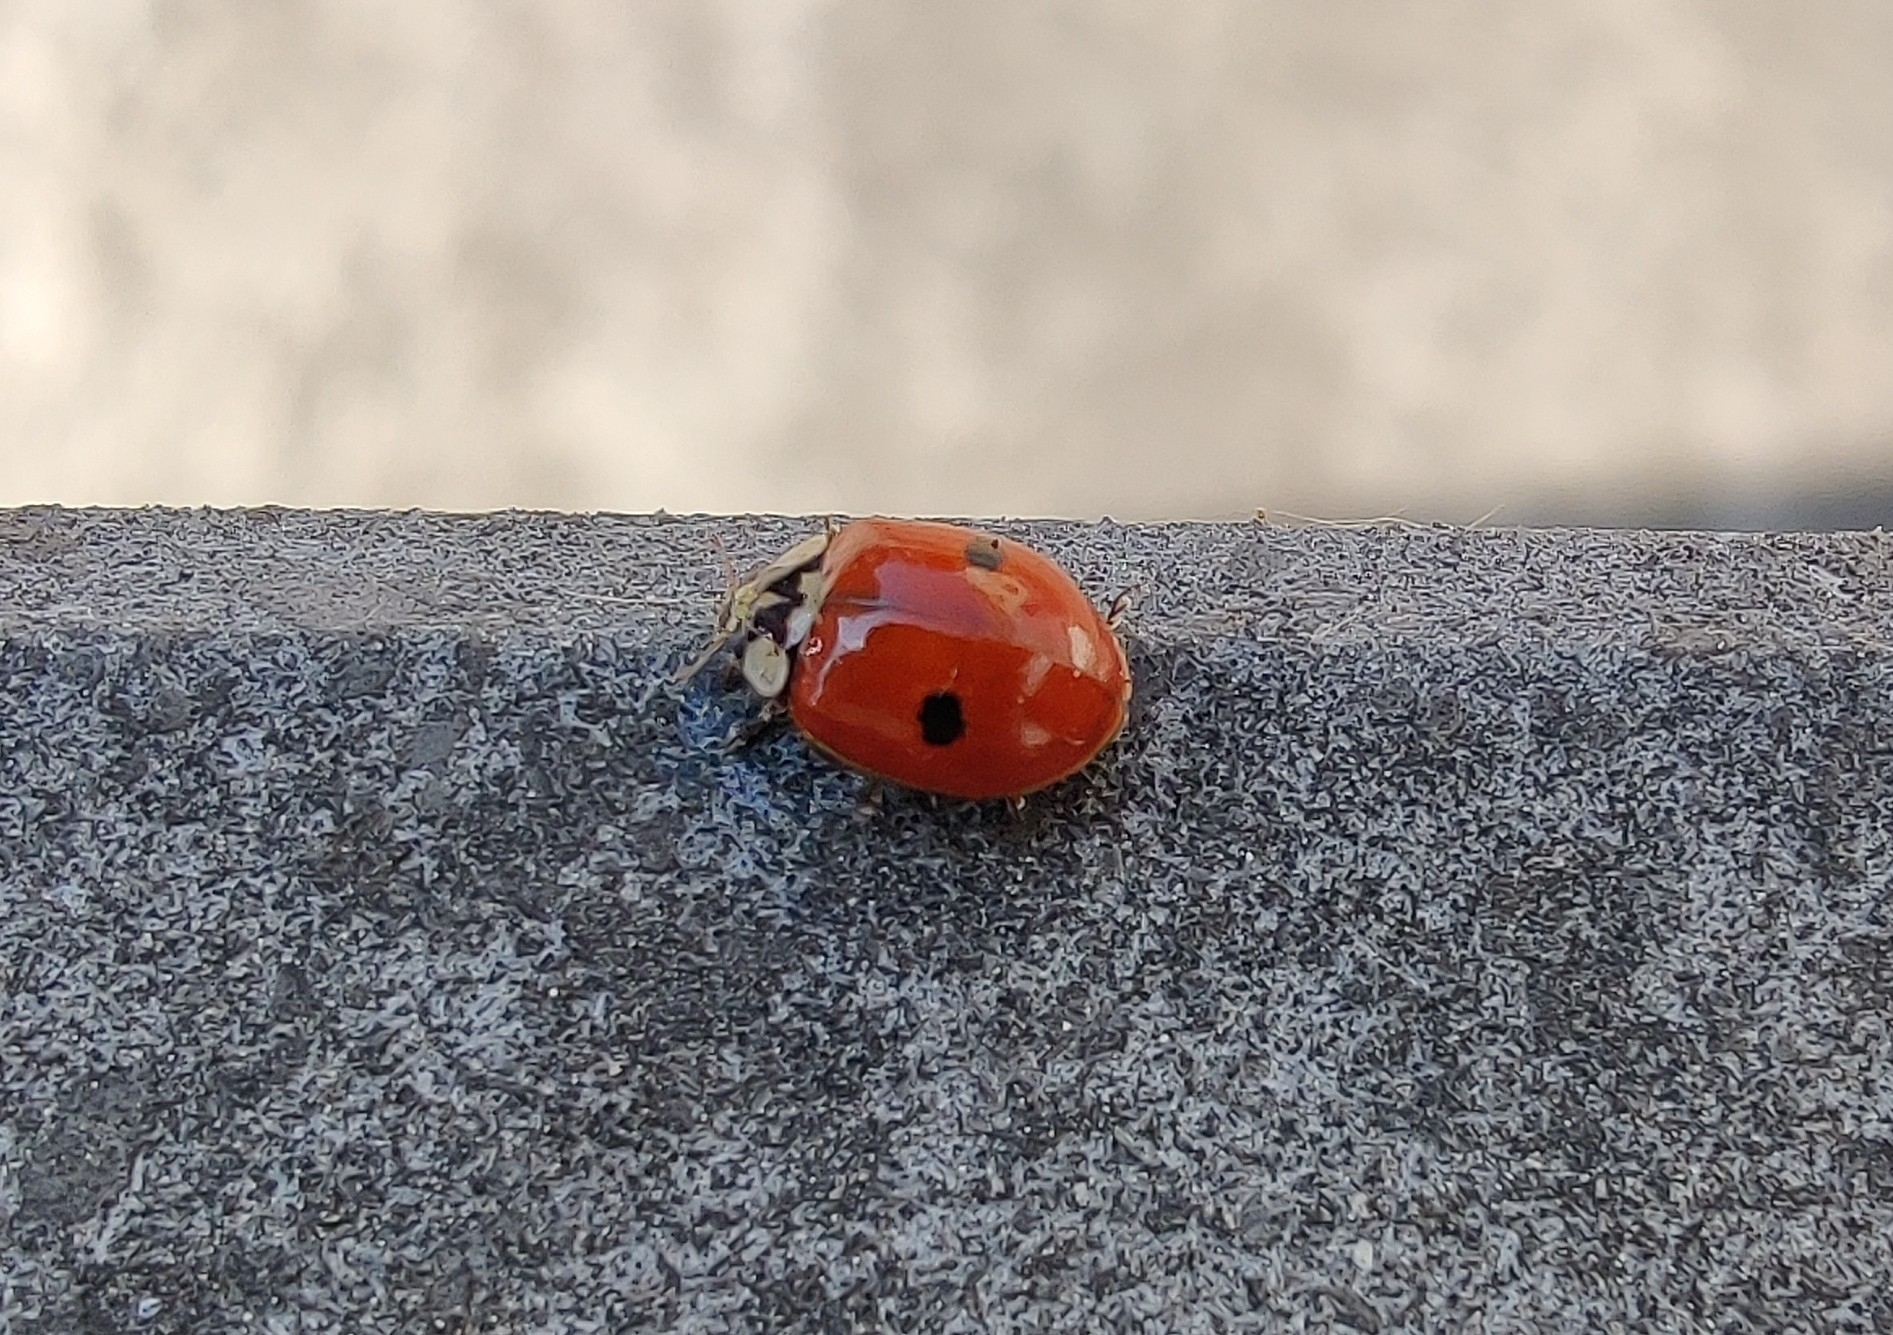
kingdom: Animalia
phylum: Arthropoda
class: Insecta
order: Coleoptera
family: Coccinellidae
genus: Adalia
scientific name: Adalia bipunctata
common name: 2-spot ladybird
